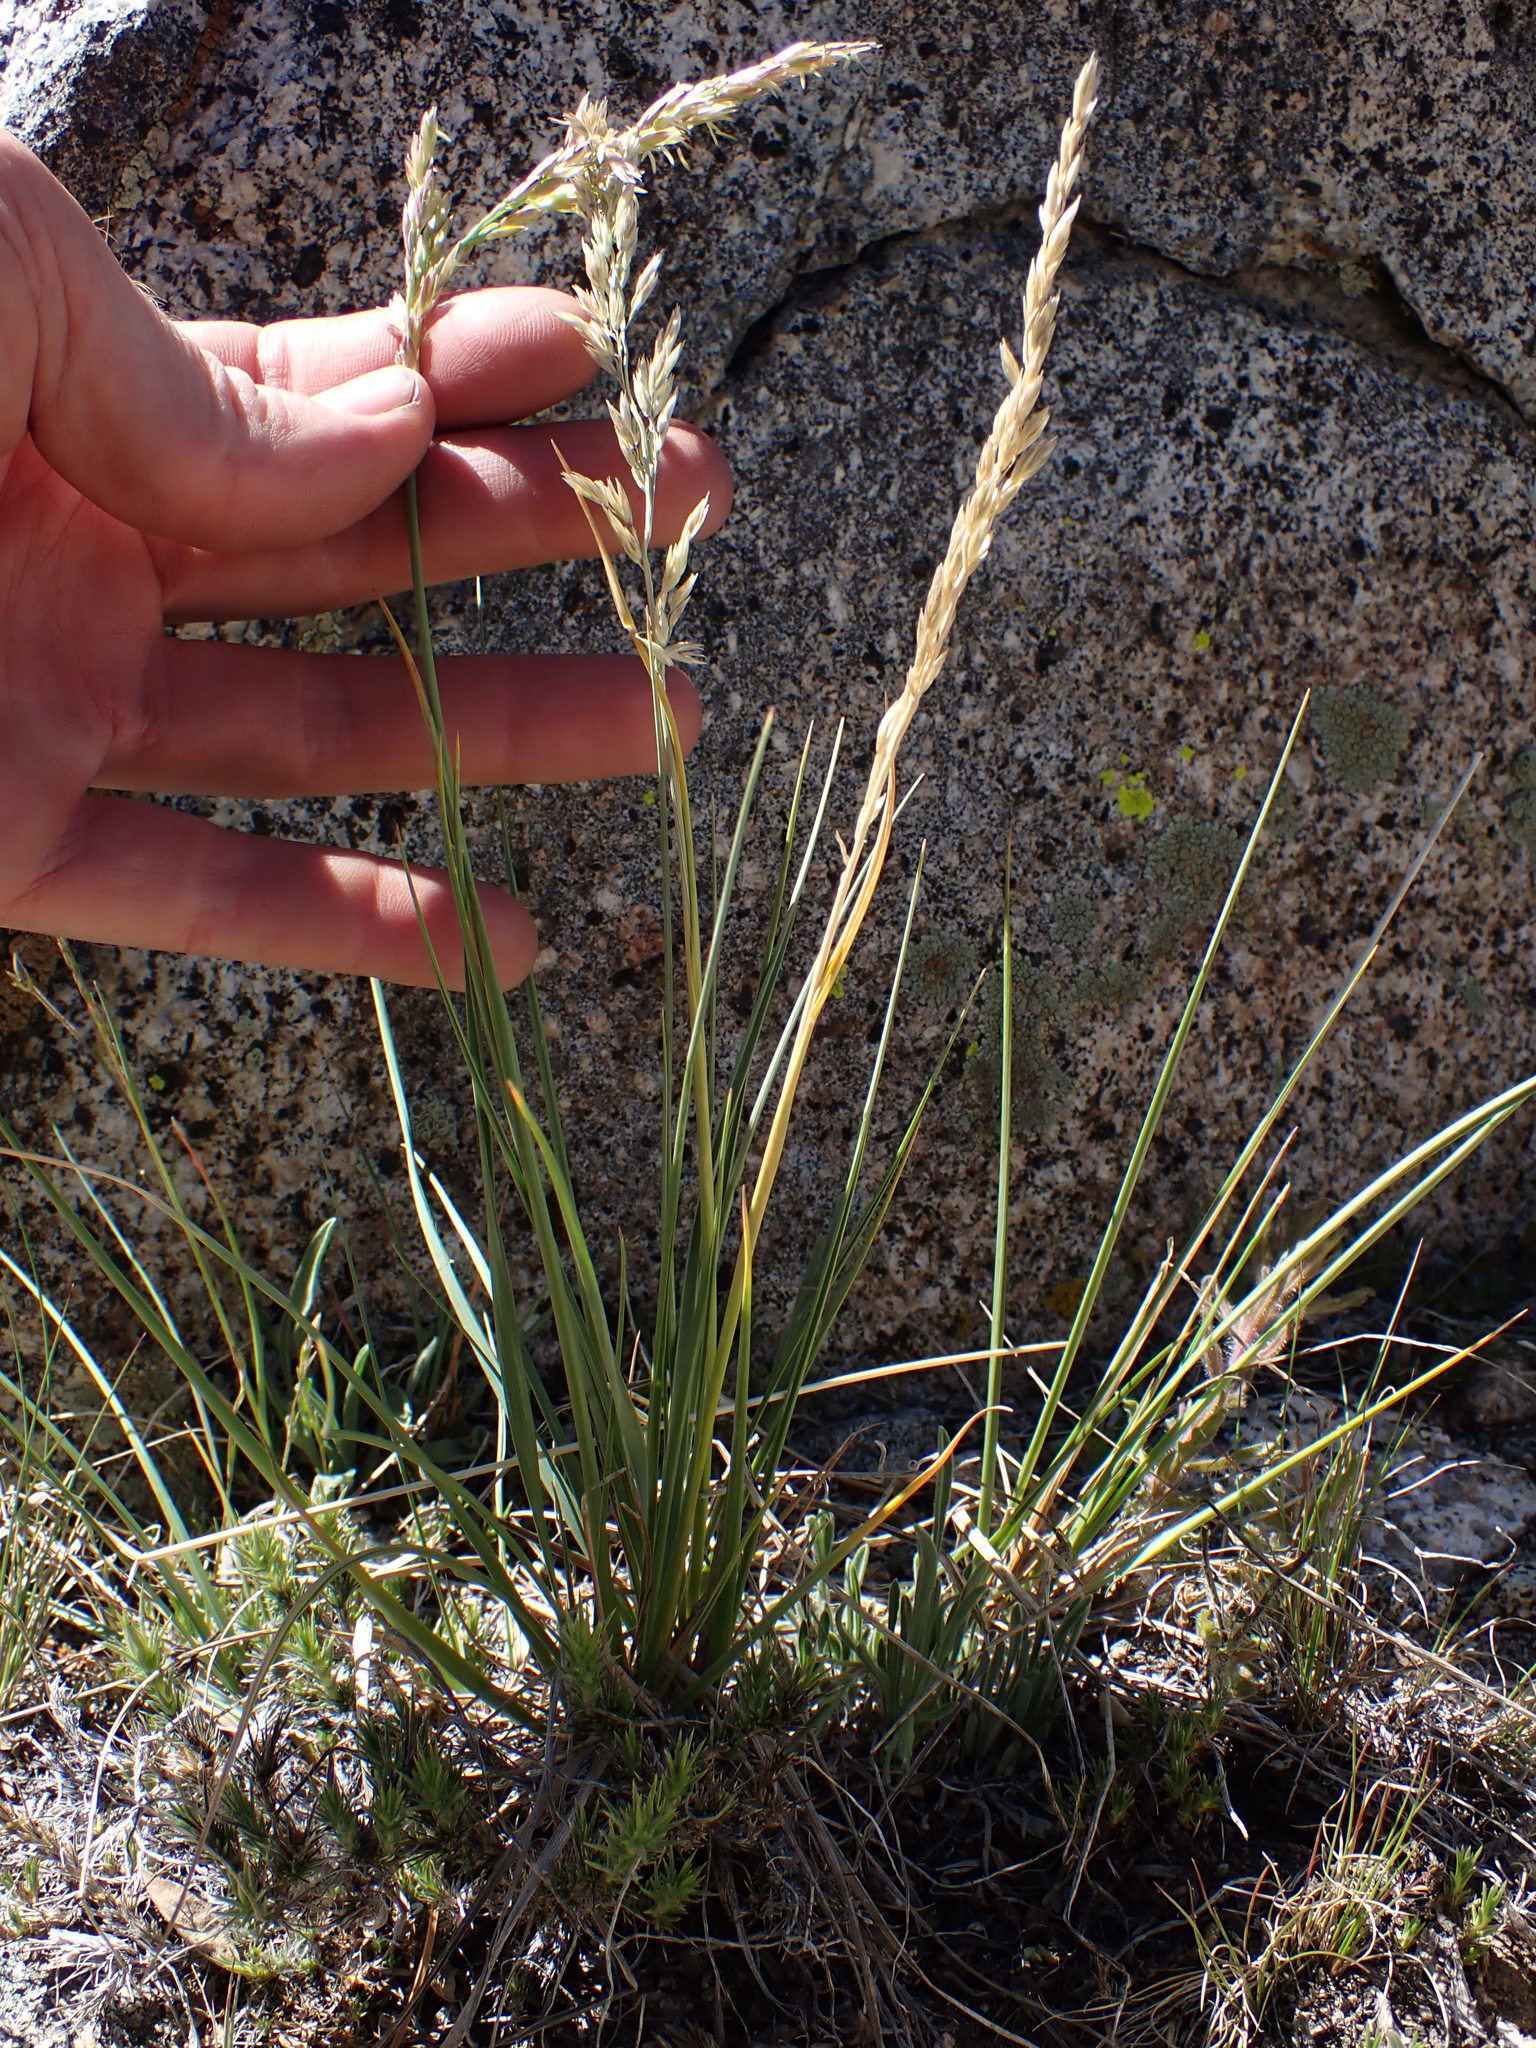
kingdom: Plantae
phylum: Tracheophyta
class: Liliopsida
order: Poales
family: Poaceae
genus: Festuca
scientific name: Festuca kingii
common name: Spike fescue
